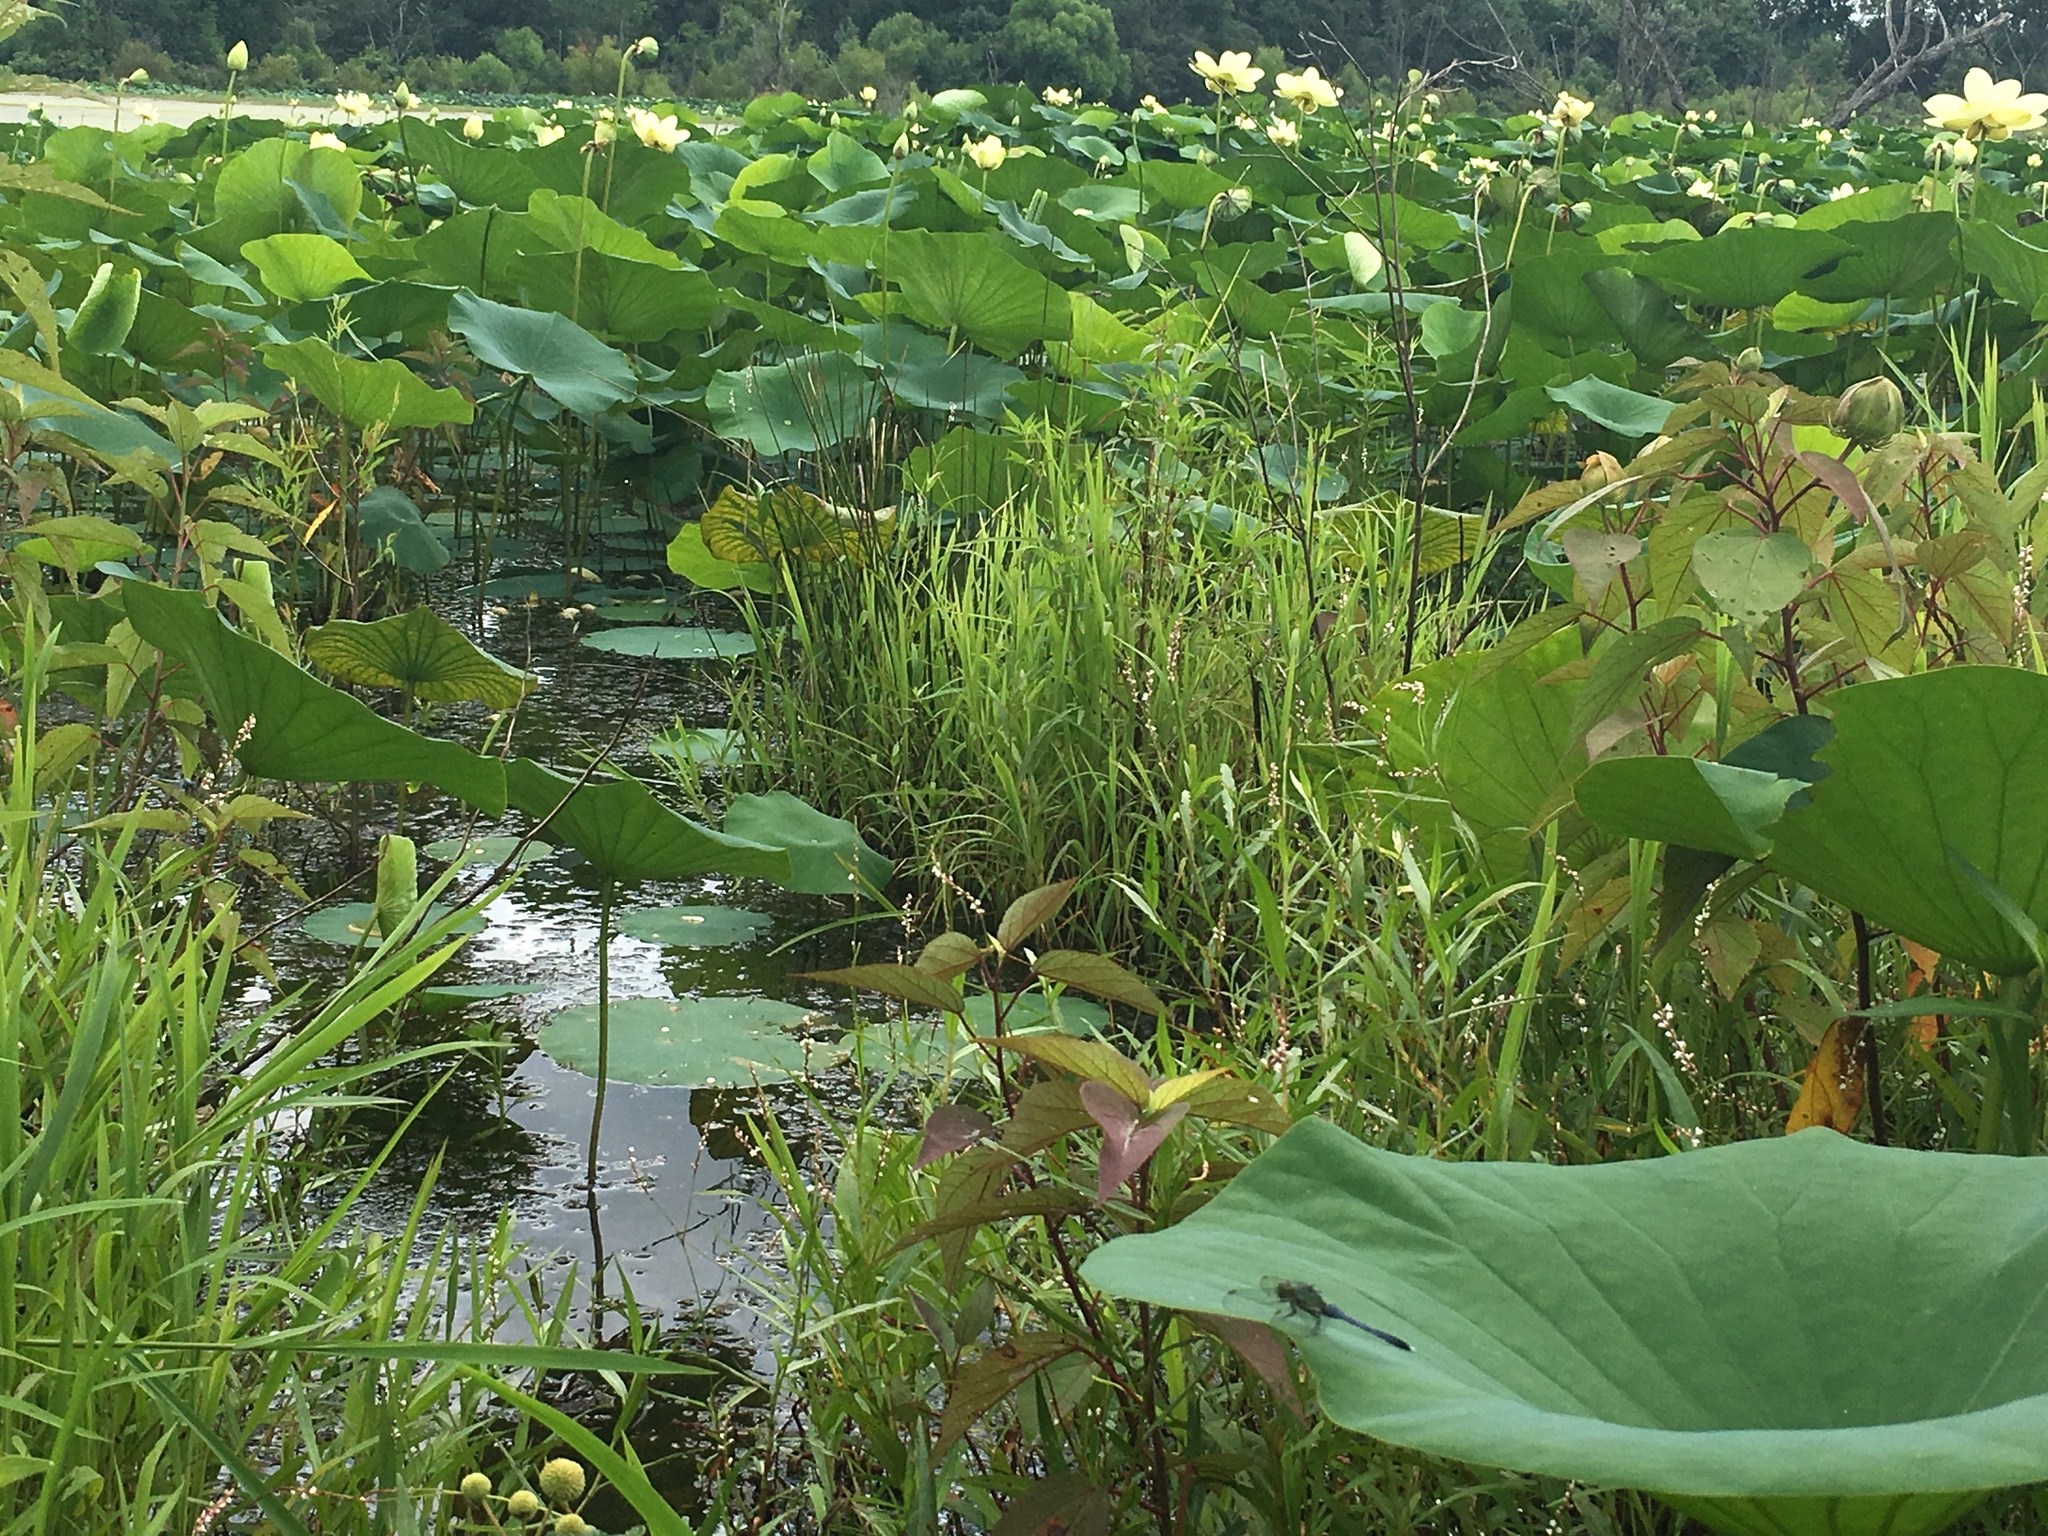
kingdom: Plantae
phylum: Tracheophyta
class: Magnoliopsida
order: Proteales
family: Nelumbonaceae
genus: Nelumbo
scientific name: Nelumbo lutea
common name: American lotus
